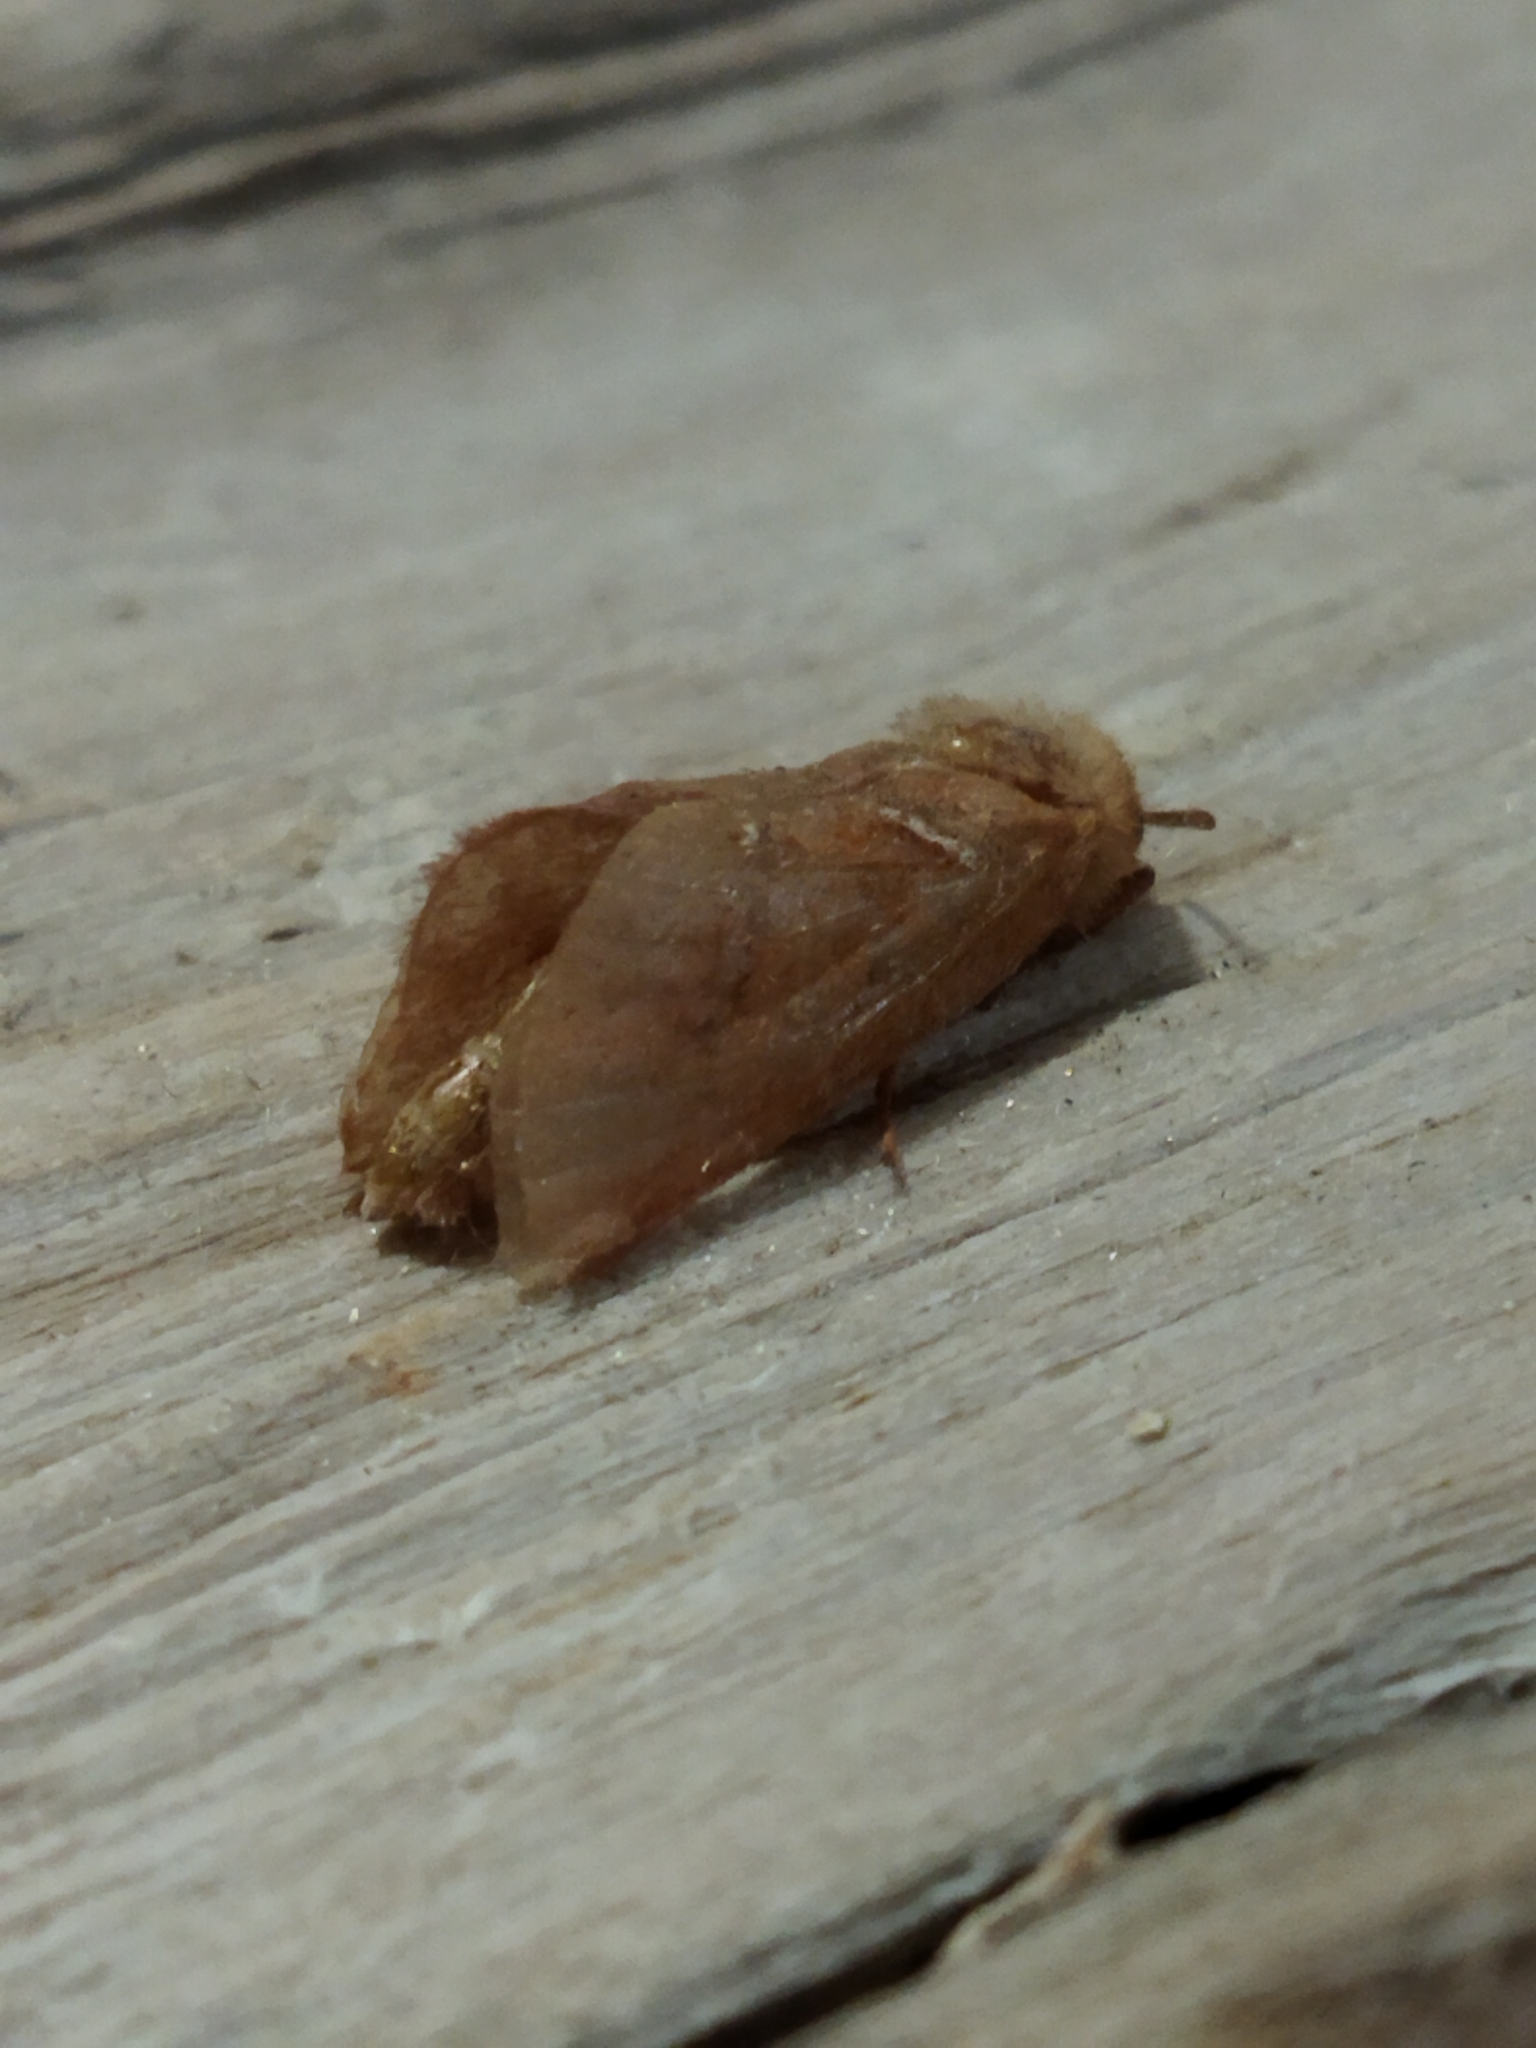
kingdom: Animalia
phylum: Arthropoda
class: Insecta
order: Lepidoptera
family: Hepialidae
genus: Triodia
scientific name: Triodia sylvina
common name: Orange swift
